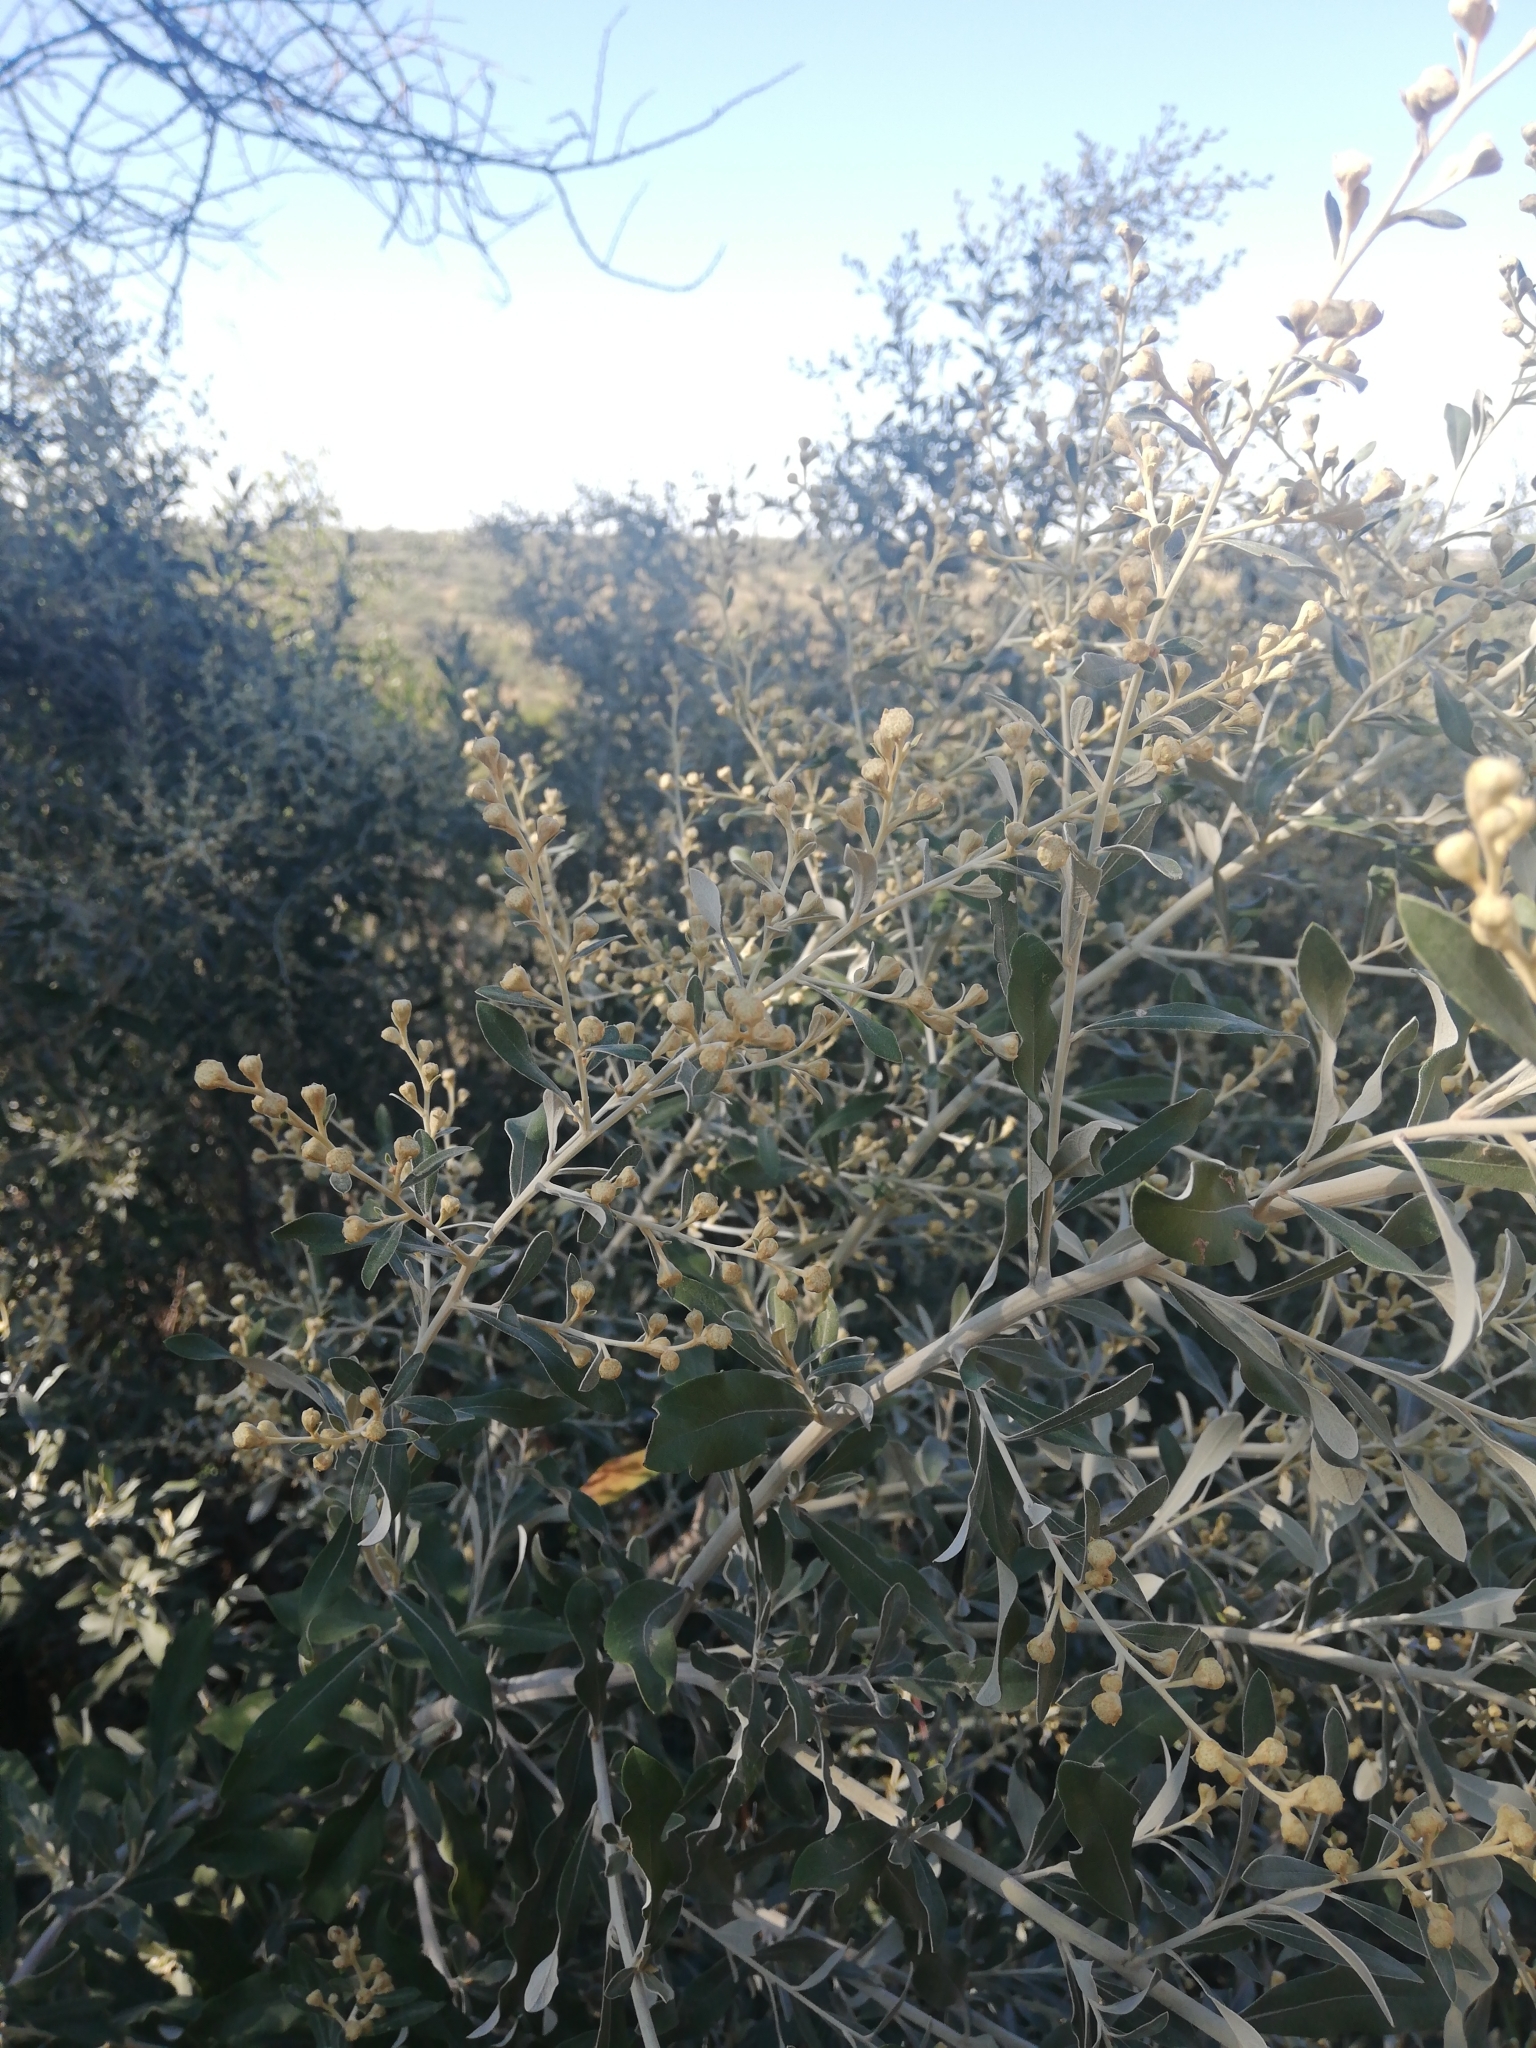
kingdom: Plantae
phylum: Tracheophyta
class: Magnoliopsida
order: Asterales
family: Asteraceae
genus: Tarchonanthus
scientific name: Tarchonanthus camphoratus
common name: Camphorwood
